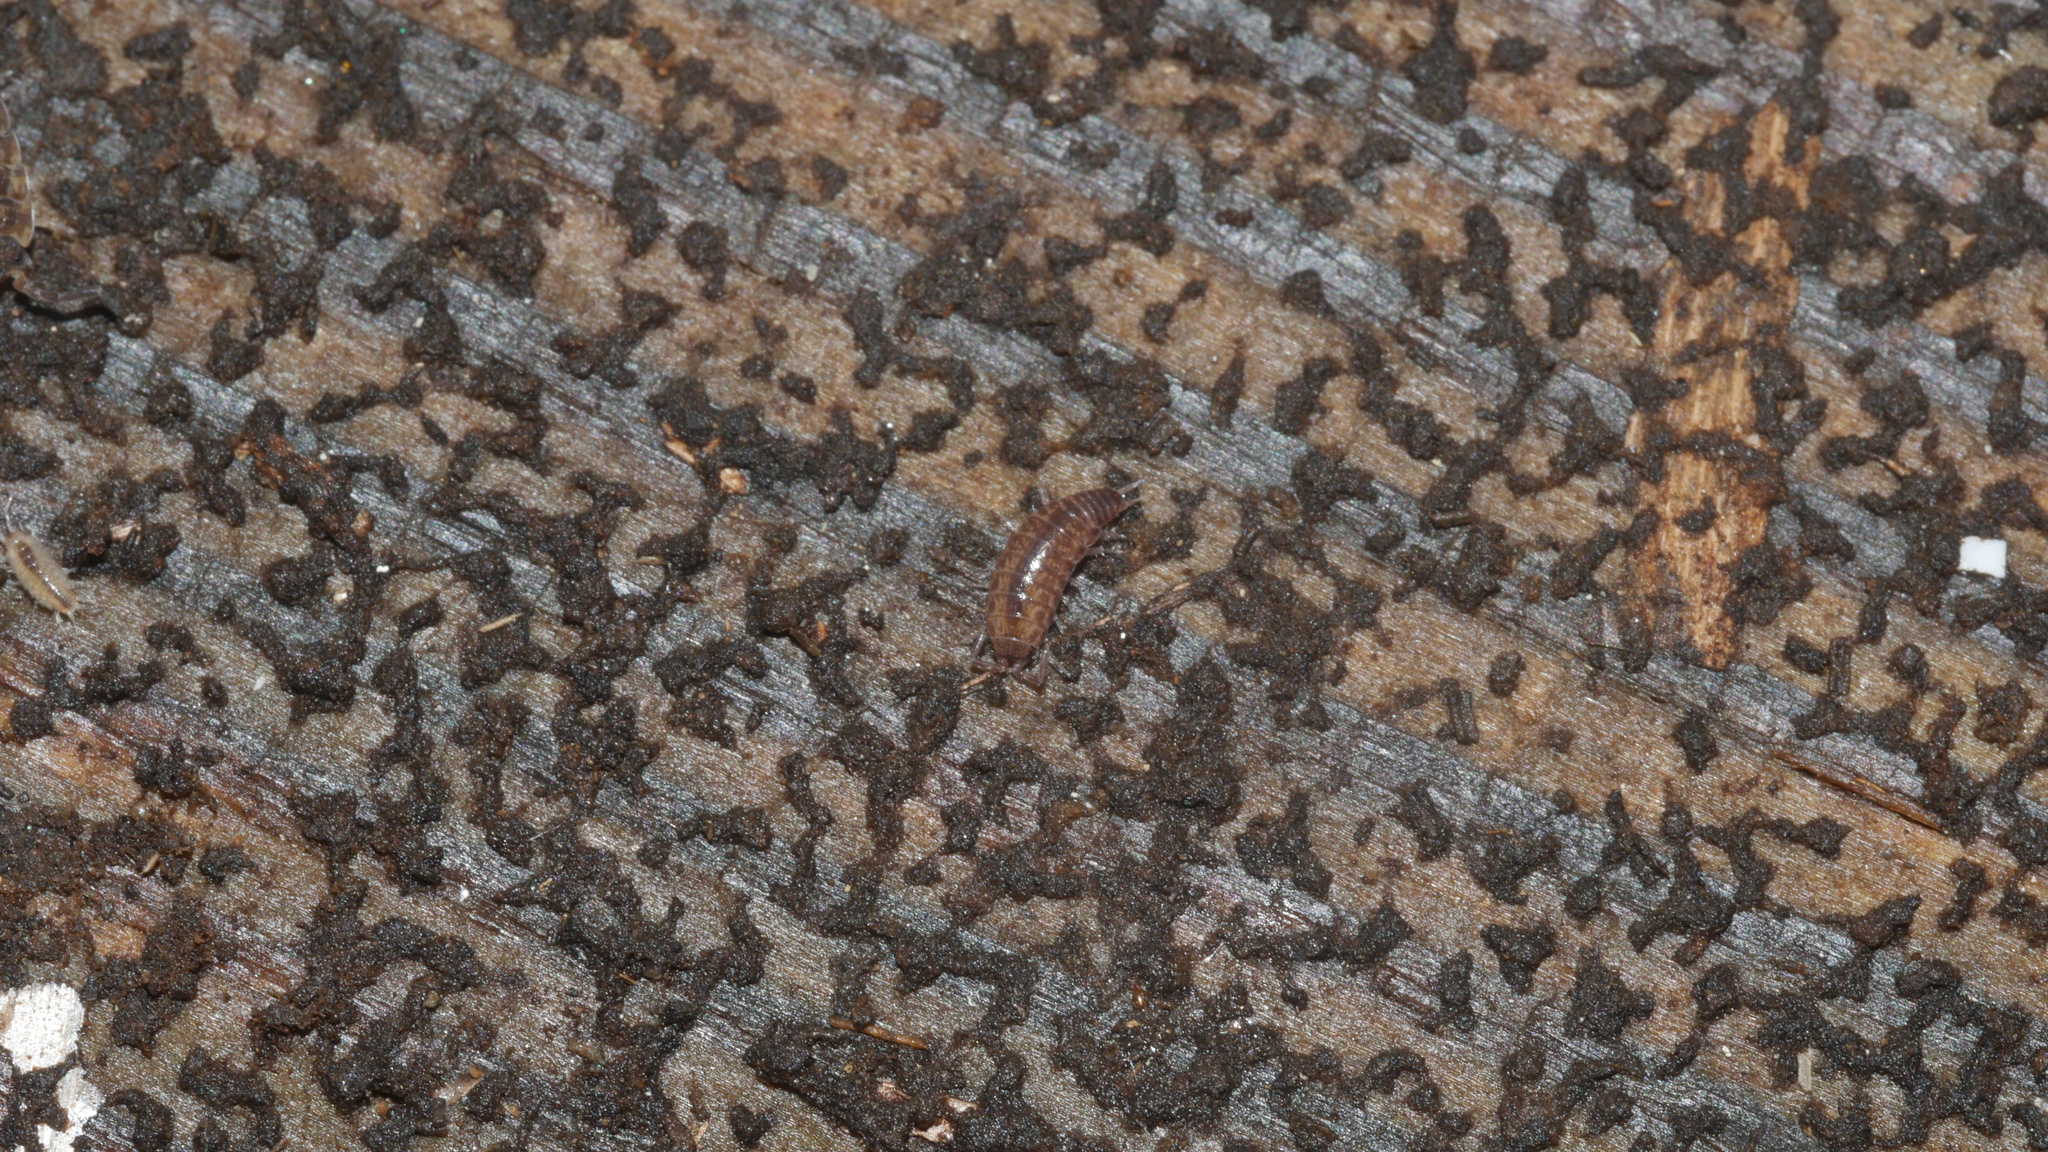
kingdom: Animalia
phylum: Arthropoda
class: Malacostraca
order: Isopoda
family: Philosciidae
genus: Chaetophiloscia
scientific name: Chaetophiloscia sicula
